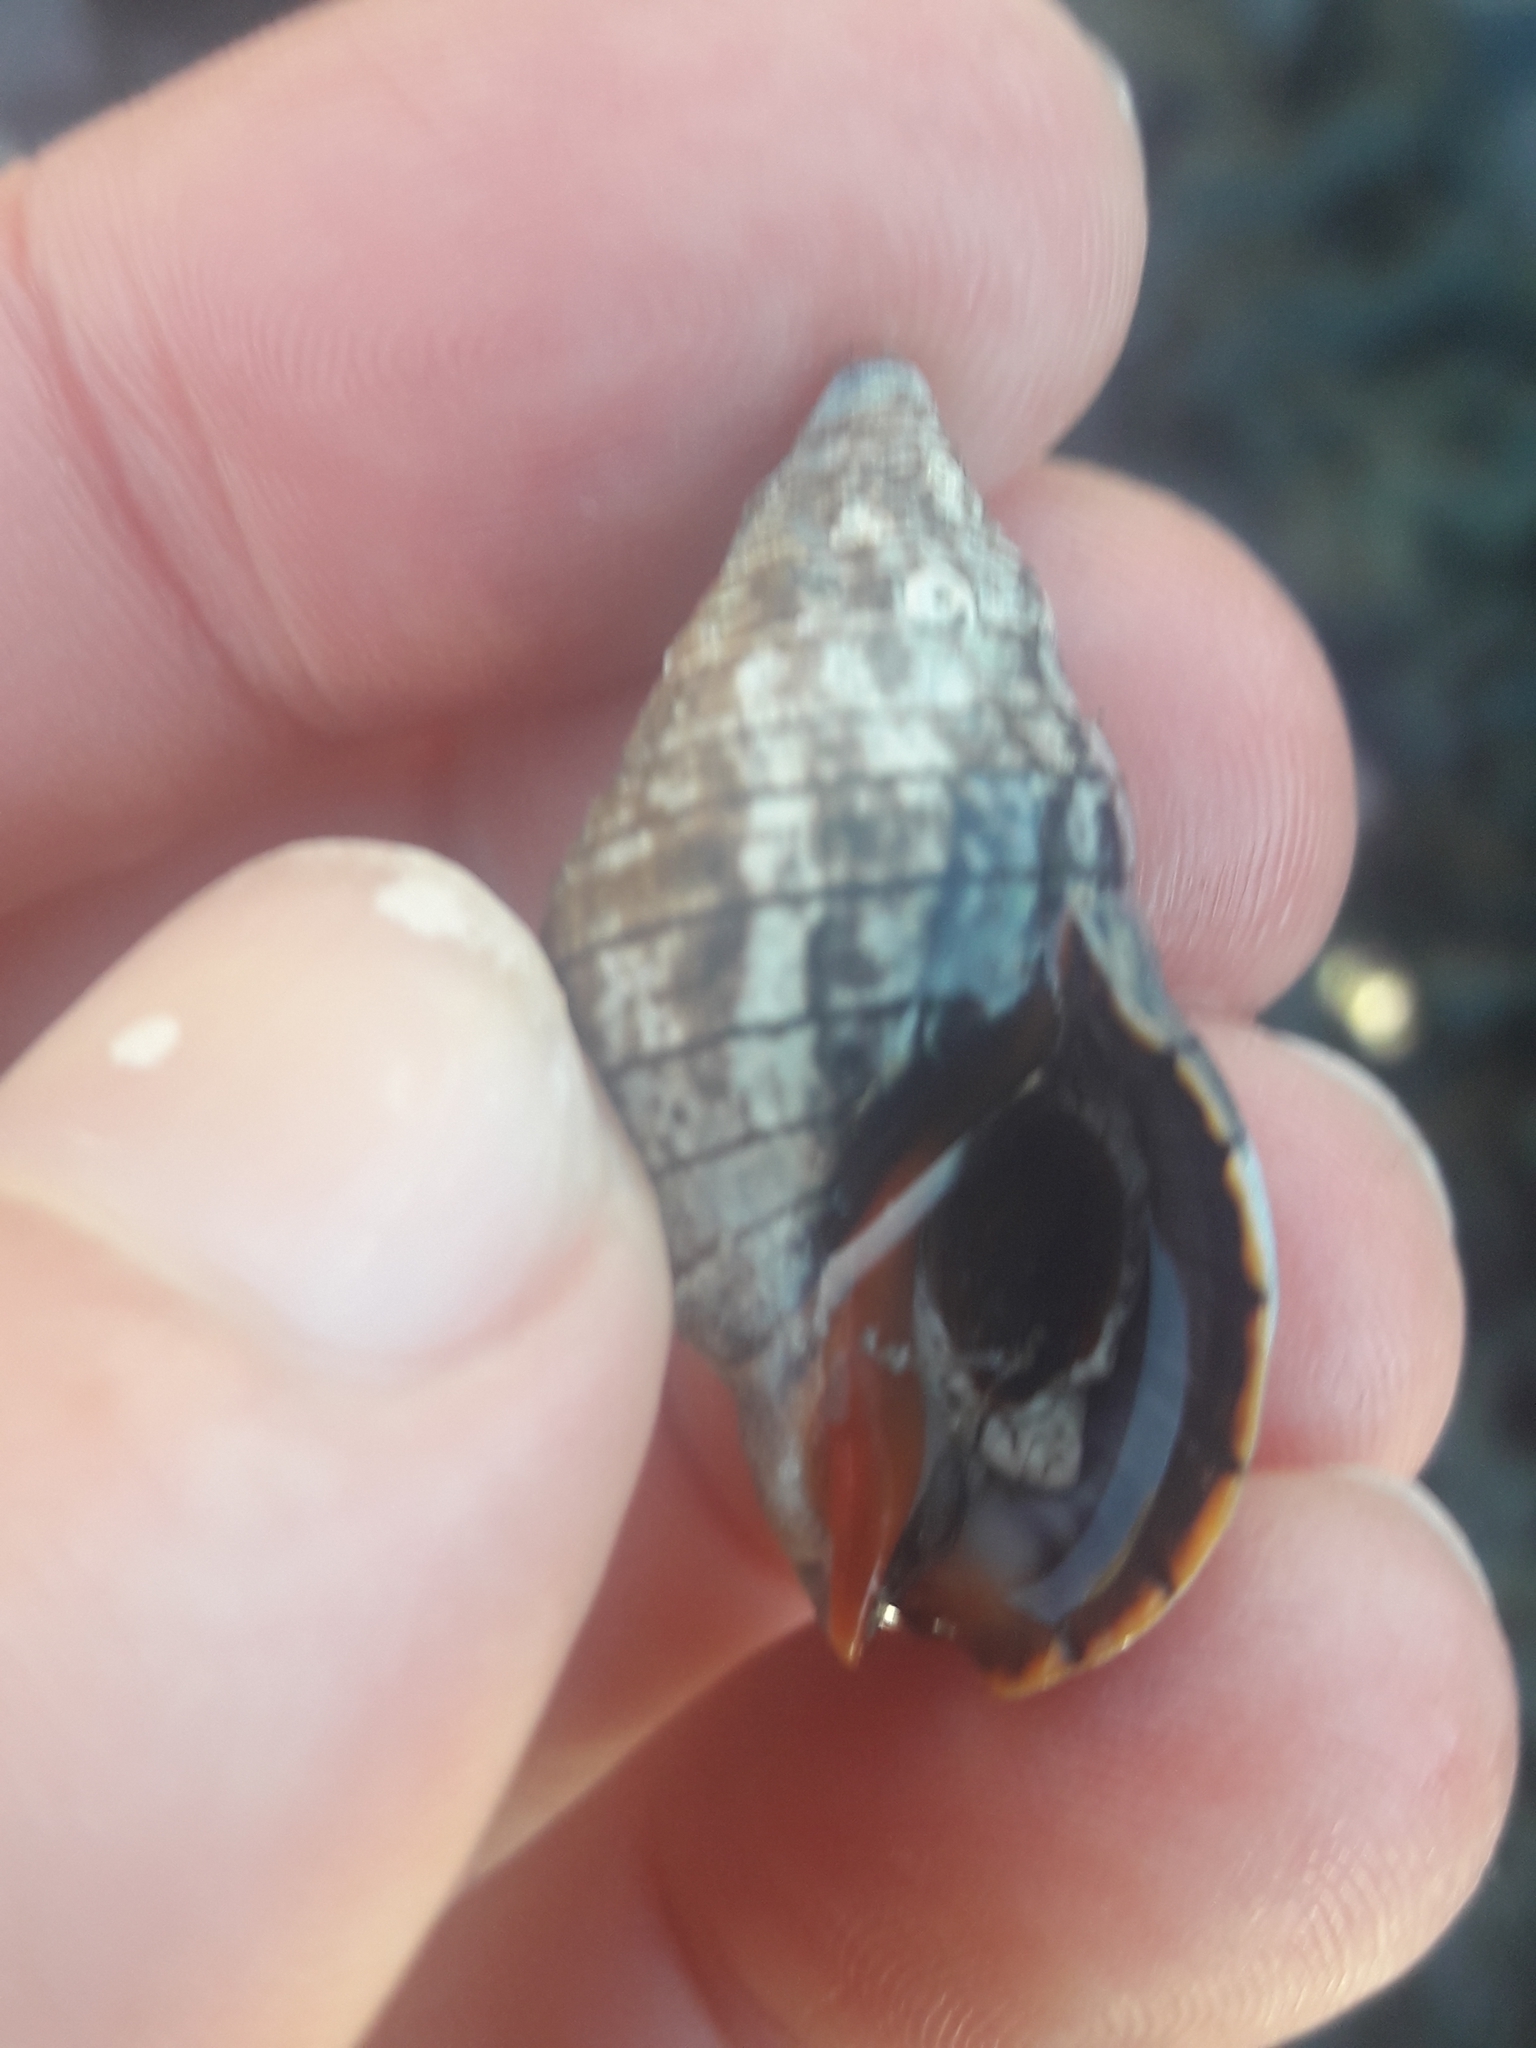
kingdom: Animalia
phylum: Mollusca
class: Gastropoda
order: Neogastropoda
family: Cominellidae
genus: Cominella
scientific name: Cominella virgata
